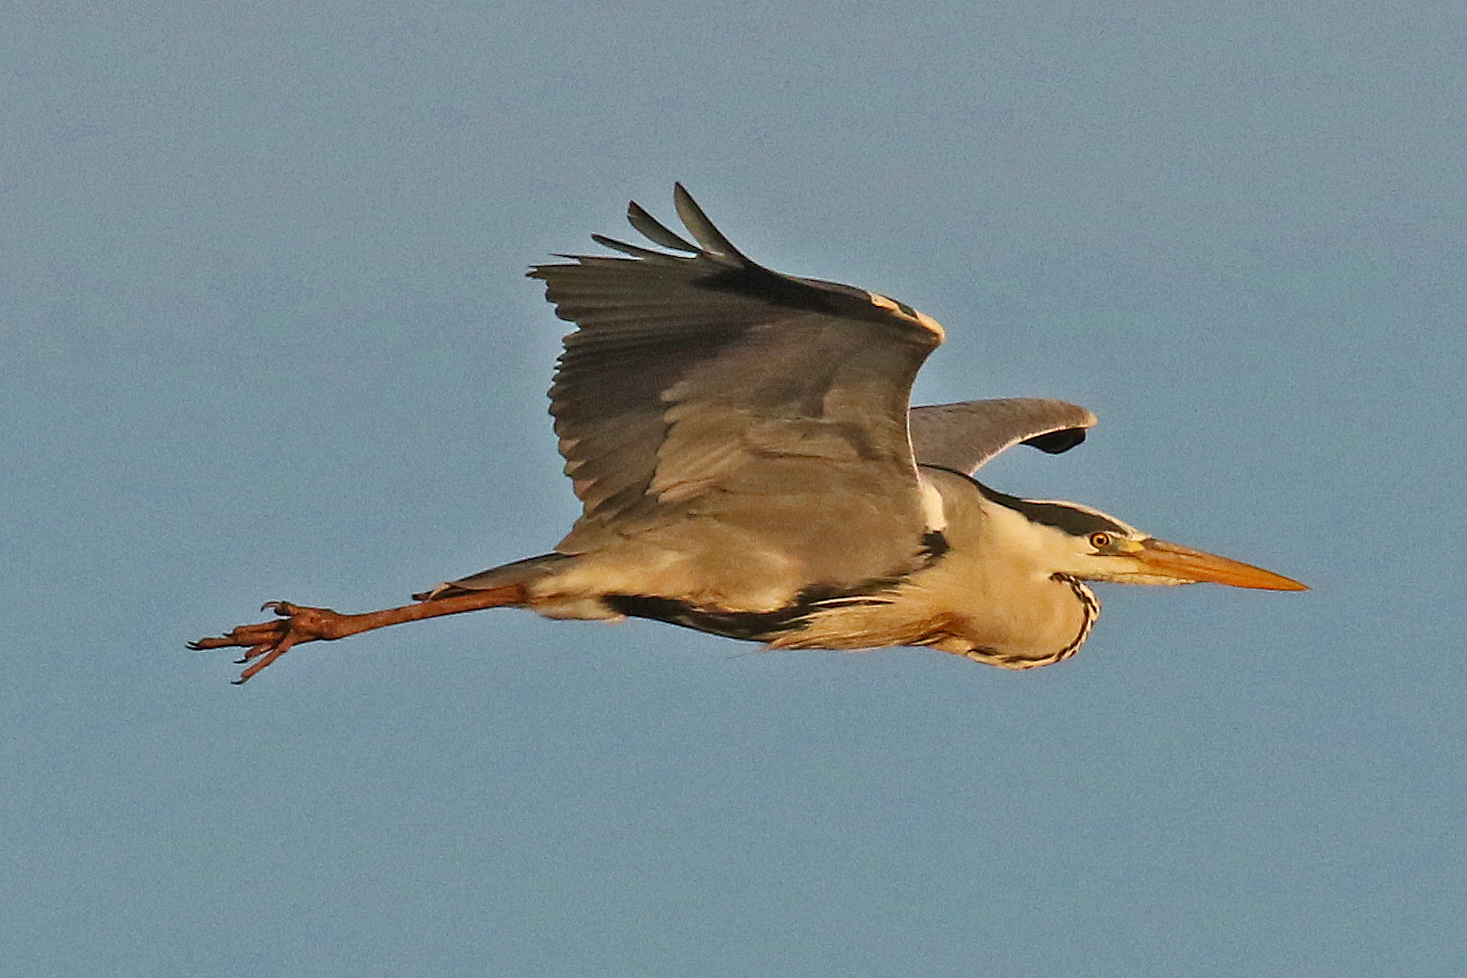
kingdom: Animalia
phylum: Chordata
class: Aves
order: Pelecaniformes
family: Ardeidae
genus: Ardea
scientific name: Ardea cinerea
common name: Grey heron
